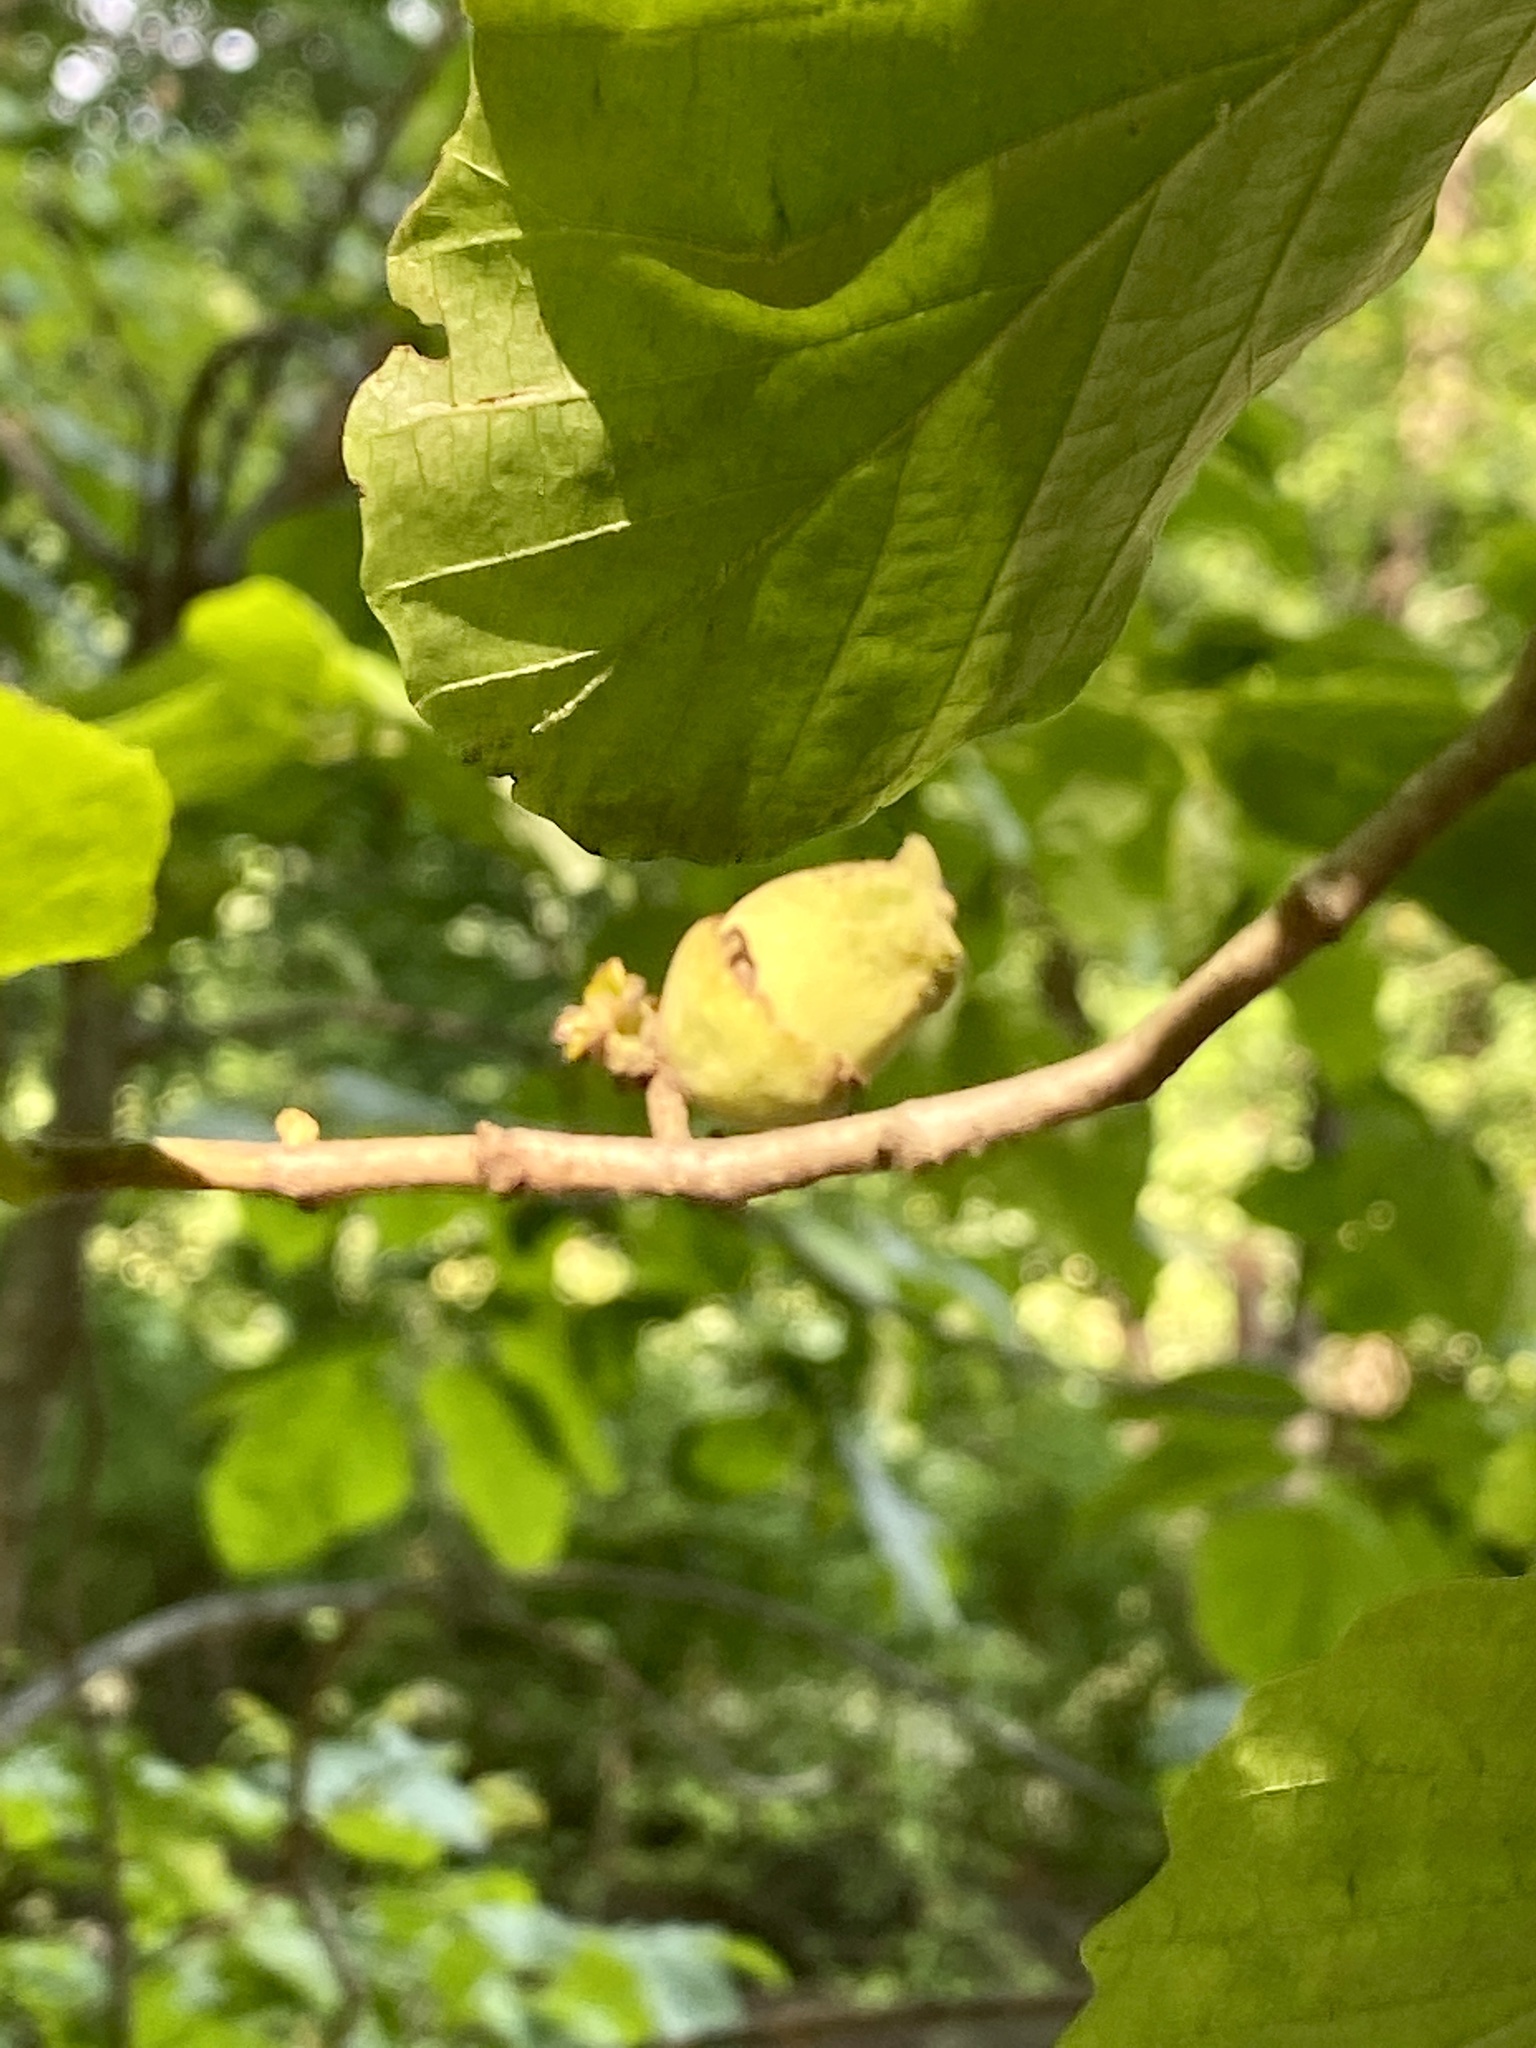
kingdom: Plantae
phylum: Tracheophyta
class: Magnoliopsida
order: Saxifragales
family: Hamamelidaceae
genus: Hamamelis
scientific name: Hamamelis virginiana
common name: Witch-hazel
